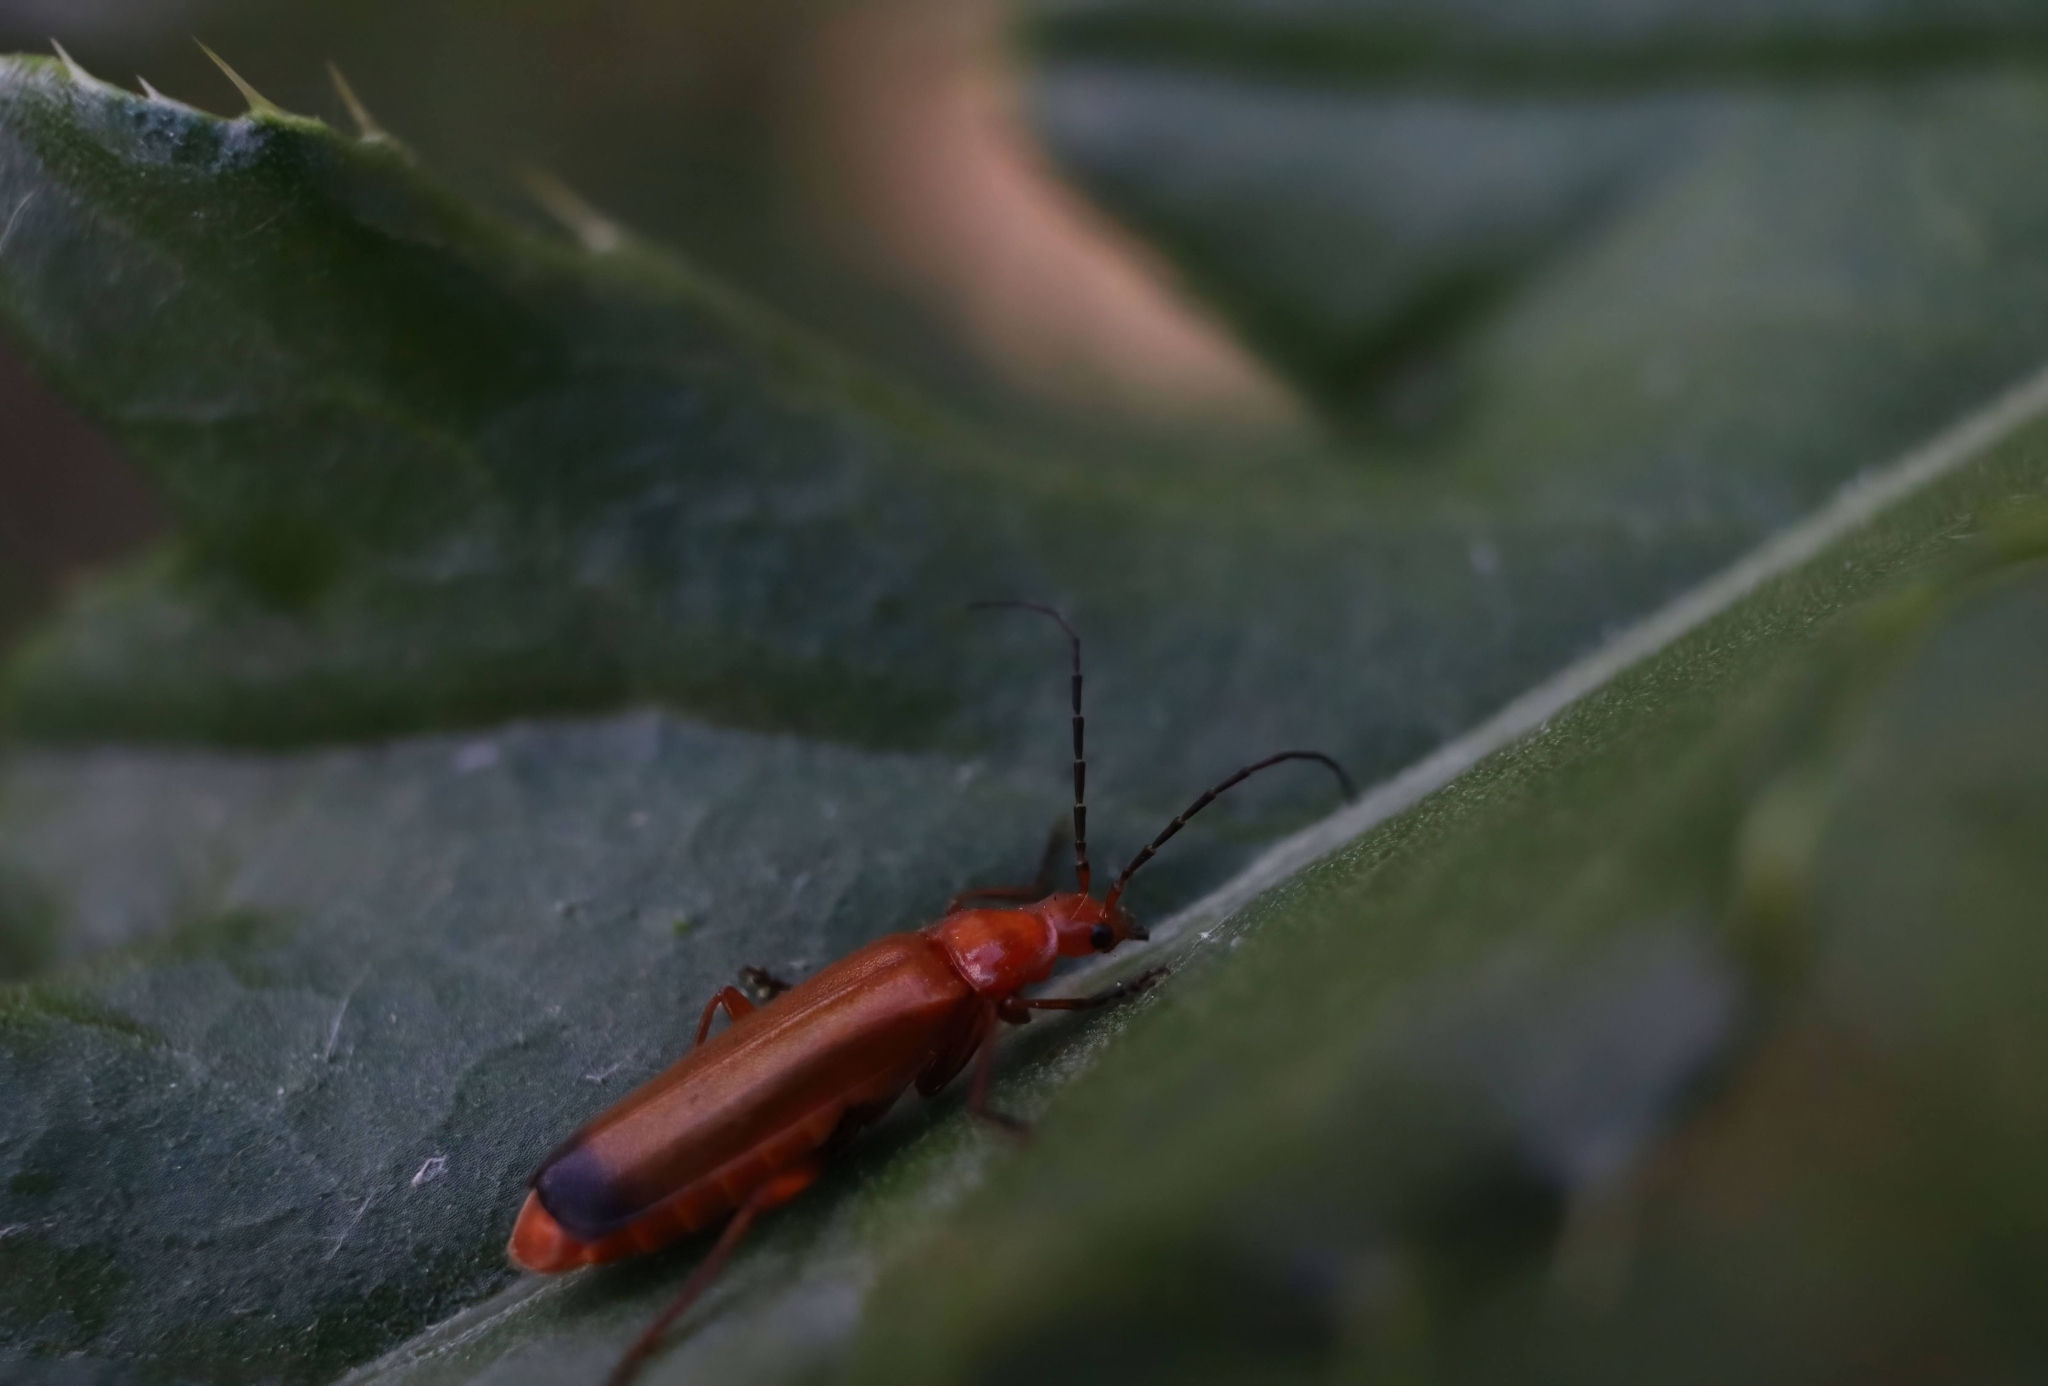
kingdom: Animalia
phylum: Arthropoda
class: Insecta
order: Coleoptera
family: Cantharidae
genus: Rhagonycha
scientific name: Rhagonycha fulva
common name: Common red soldier beetle
